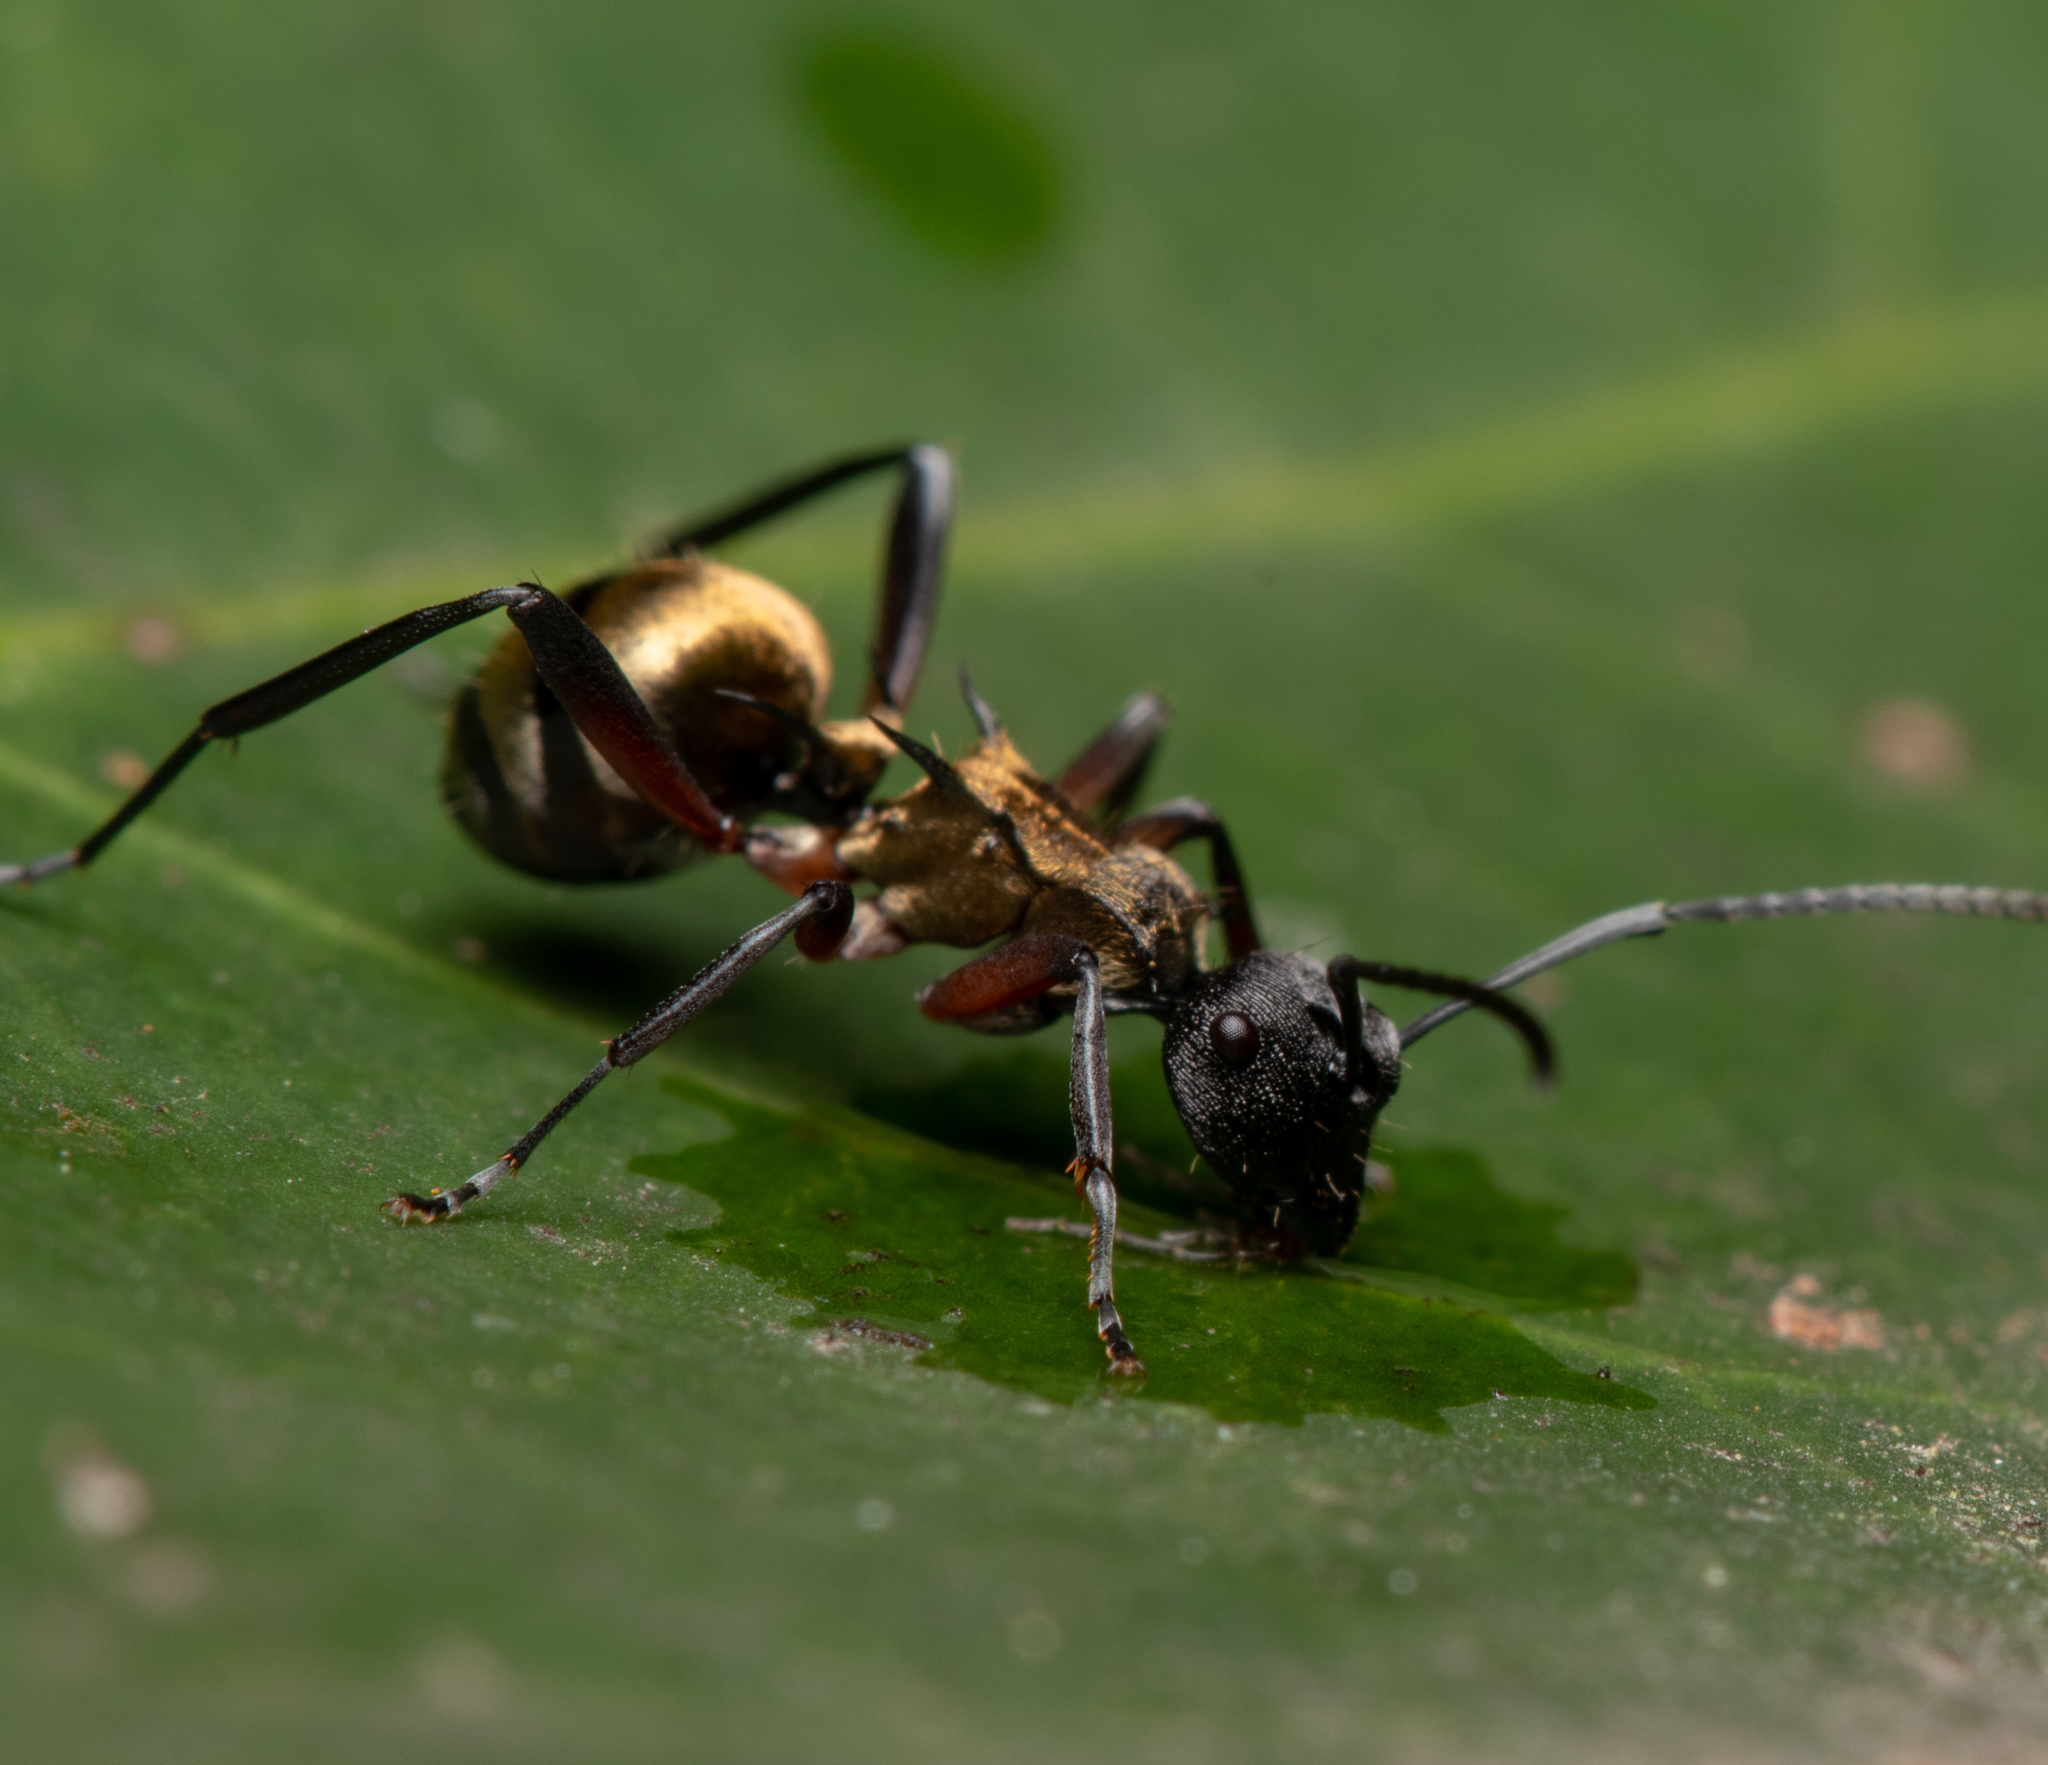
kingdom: Animalia
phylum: Arthropoda
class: Insecta
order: Hymenoptera
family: Formicidae
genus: Polyrhachis
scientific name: Polyrhachis rufifemur
